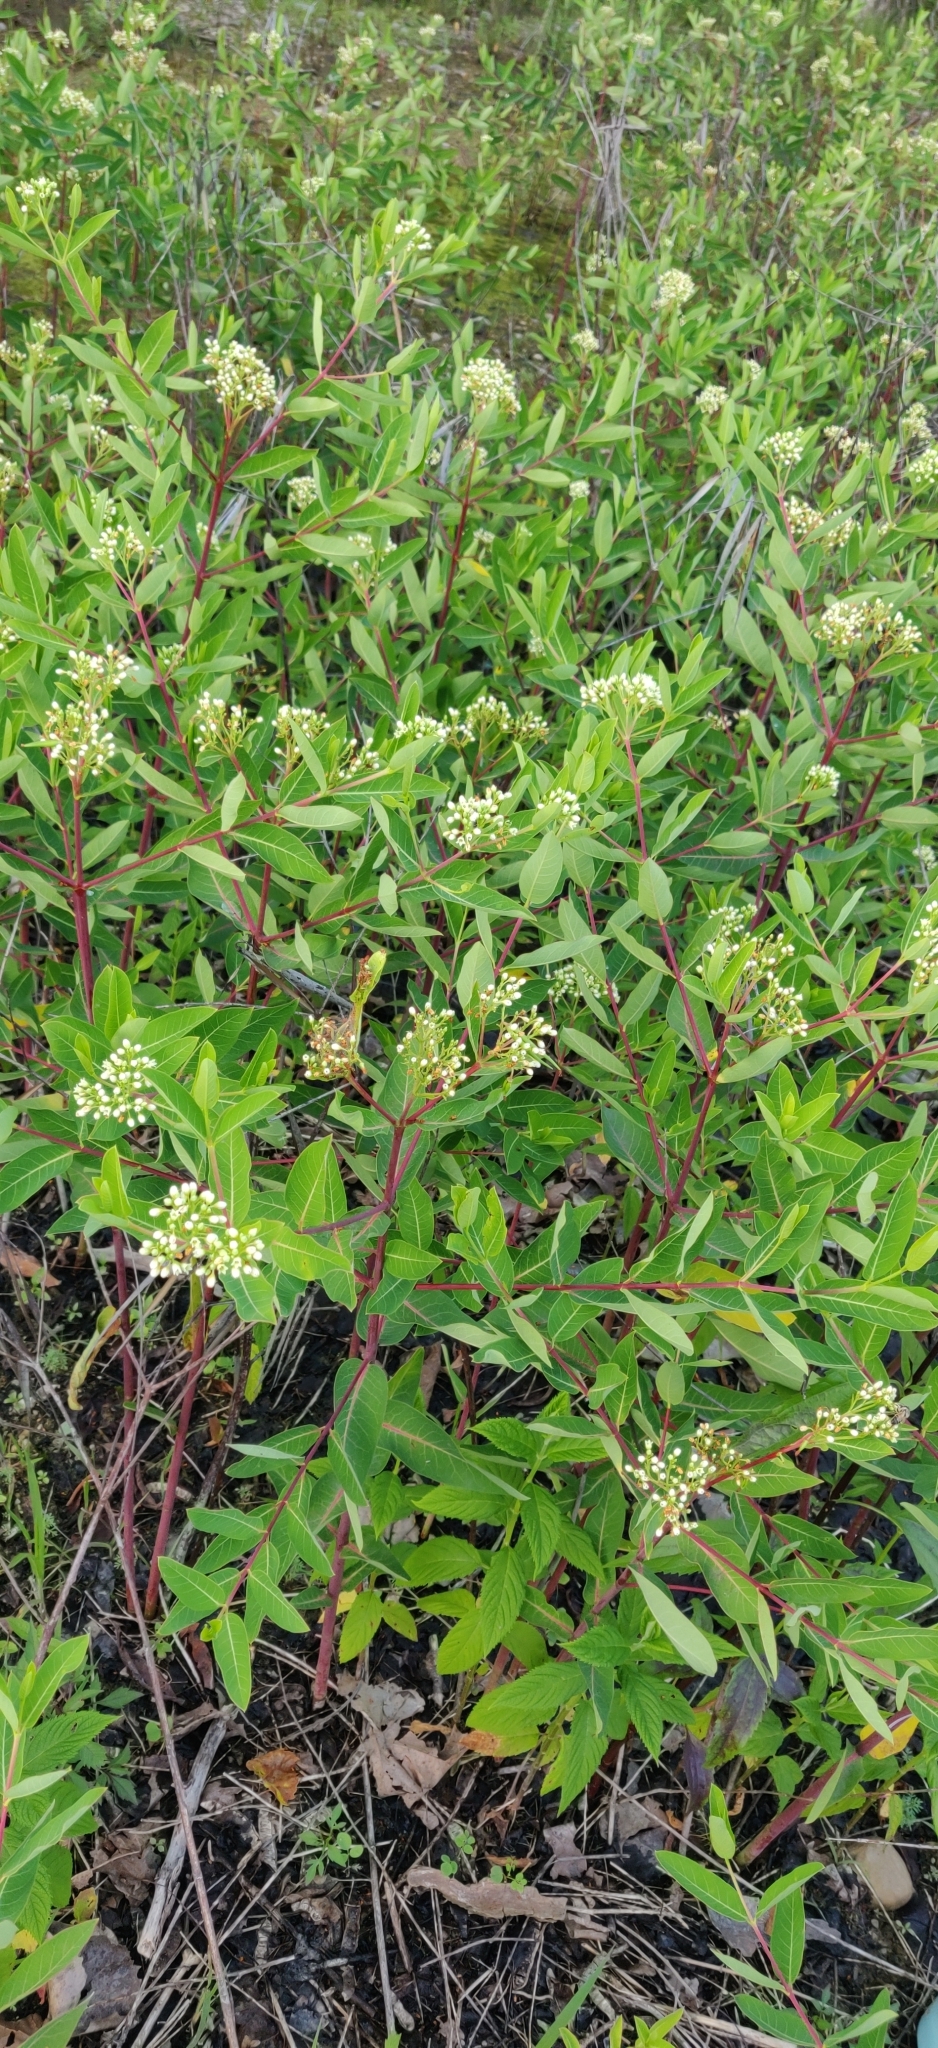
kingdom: Plantae
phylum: Tracheophyta
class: Magnoliopsida
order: Gentianales
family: Apocynaceae
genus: Apocynum
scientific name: Apocynum cannabinum
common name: Hemp dogbane
